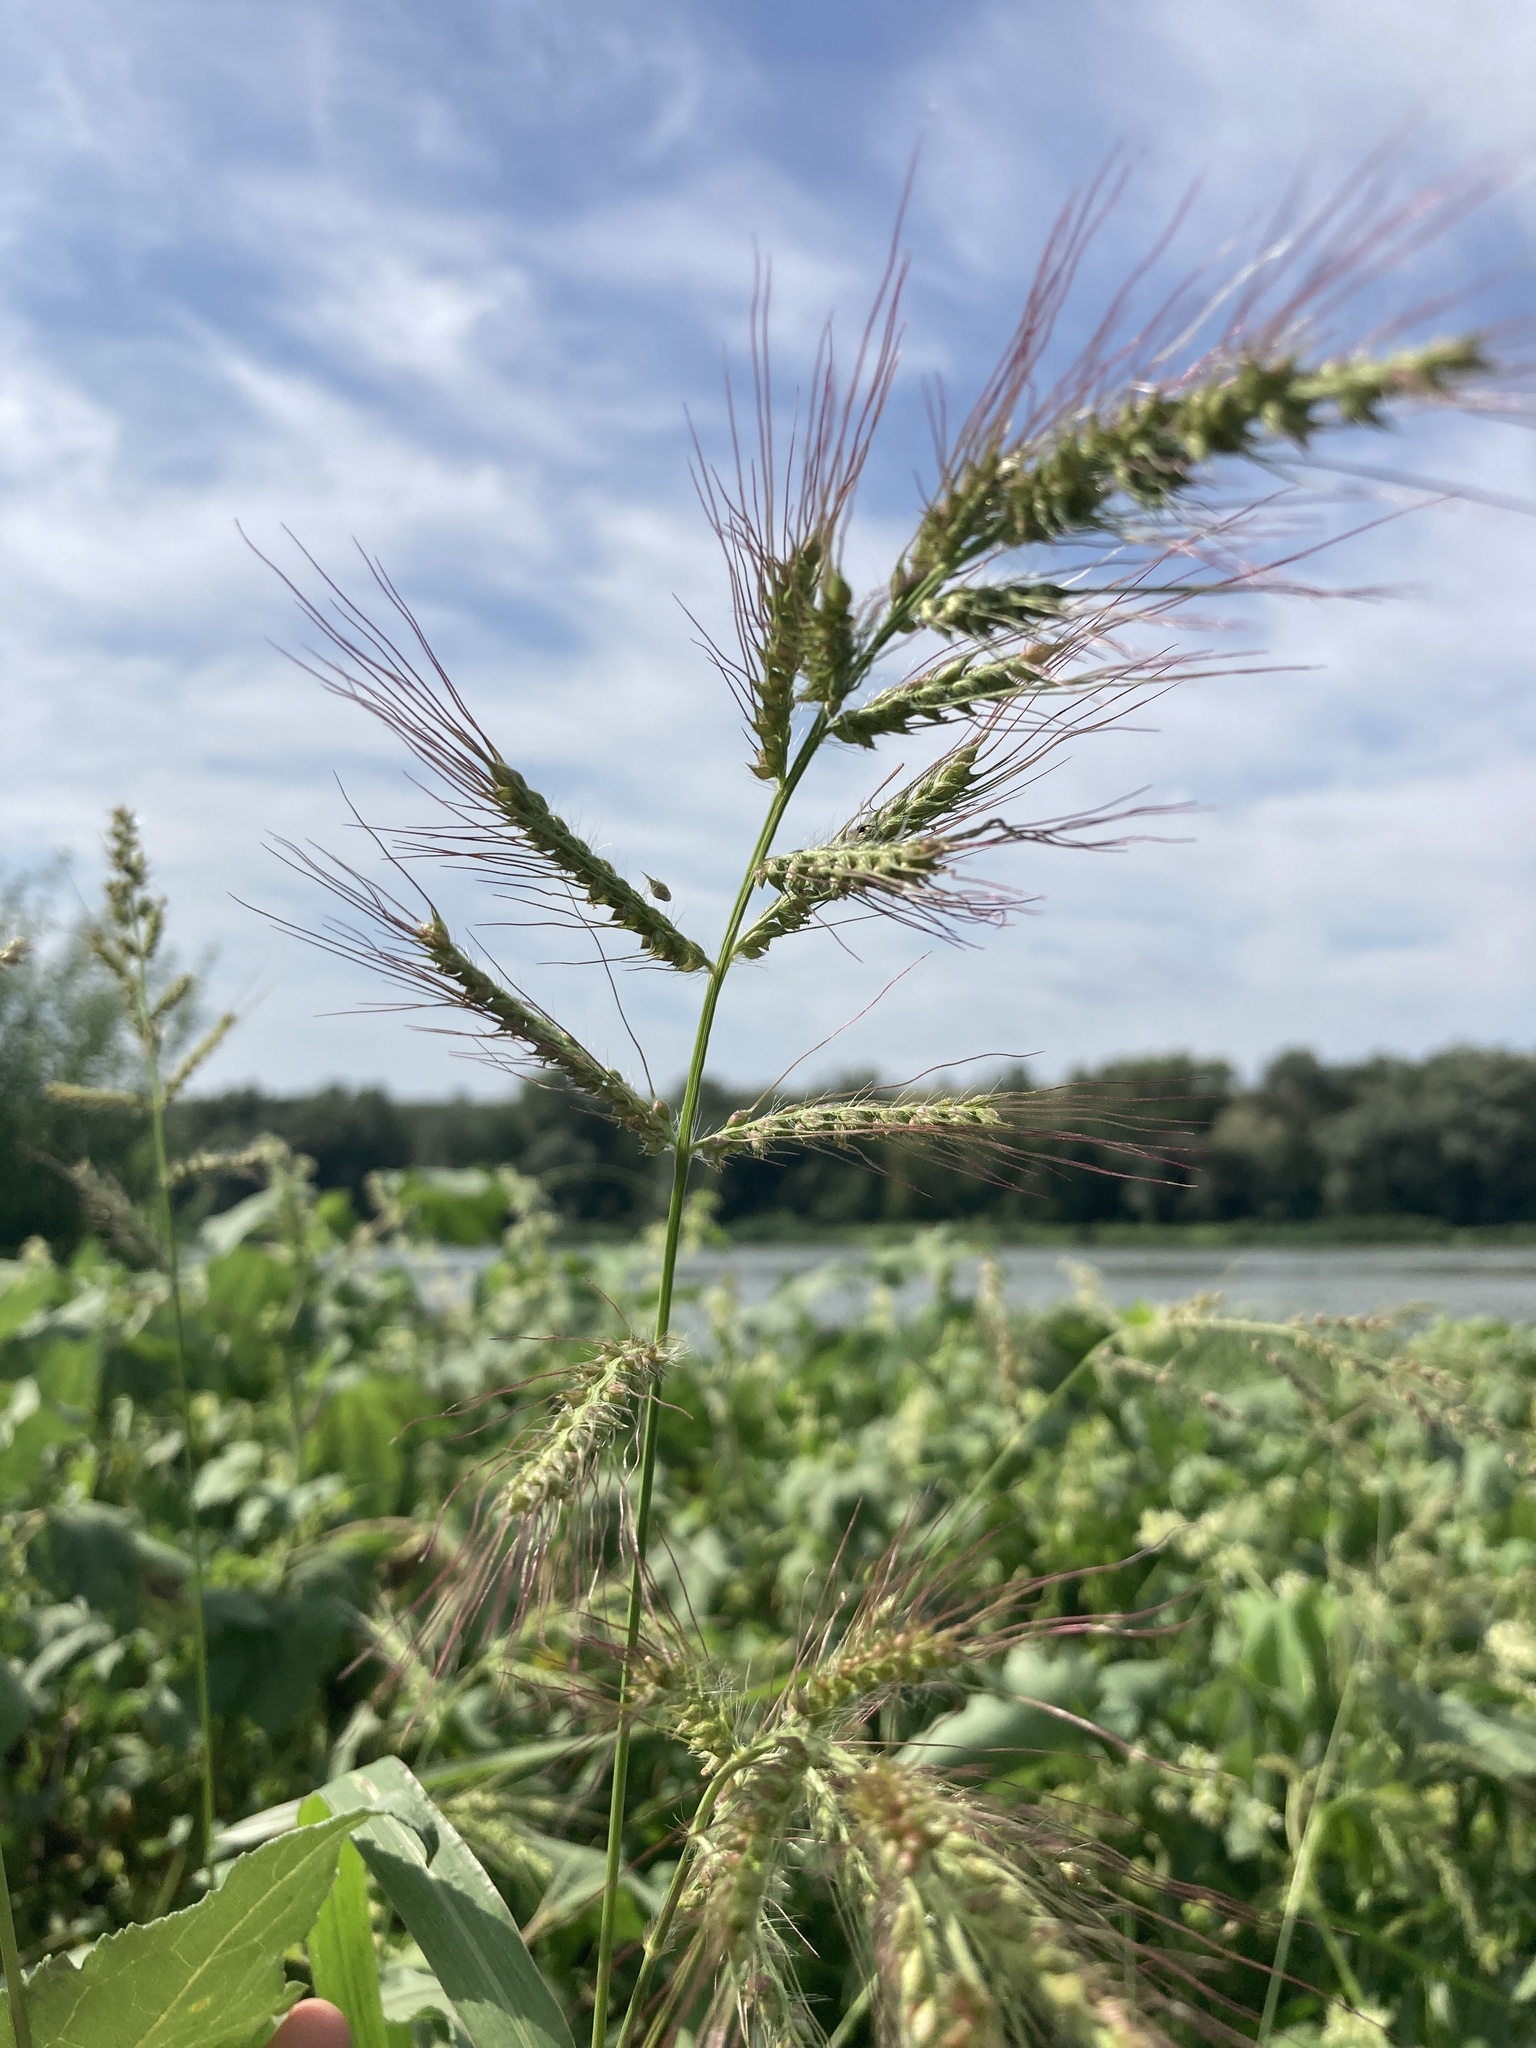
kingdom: Plantae
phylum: Tracheophyta
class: Liliopsida
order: Poales
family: Poaceae
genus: Echinochloa
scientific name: Echinochloa crus-galli
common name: Cockspur
